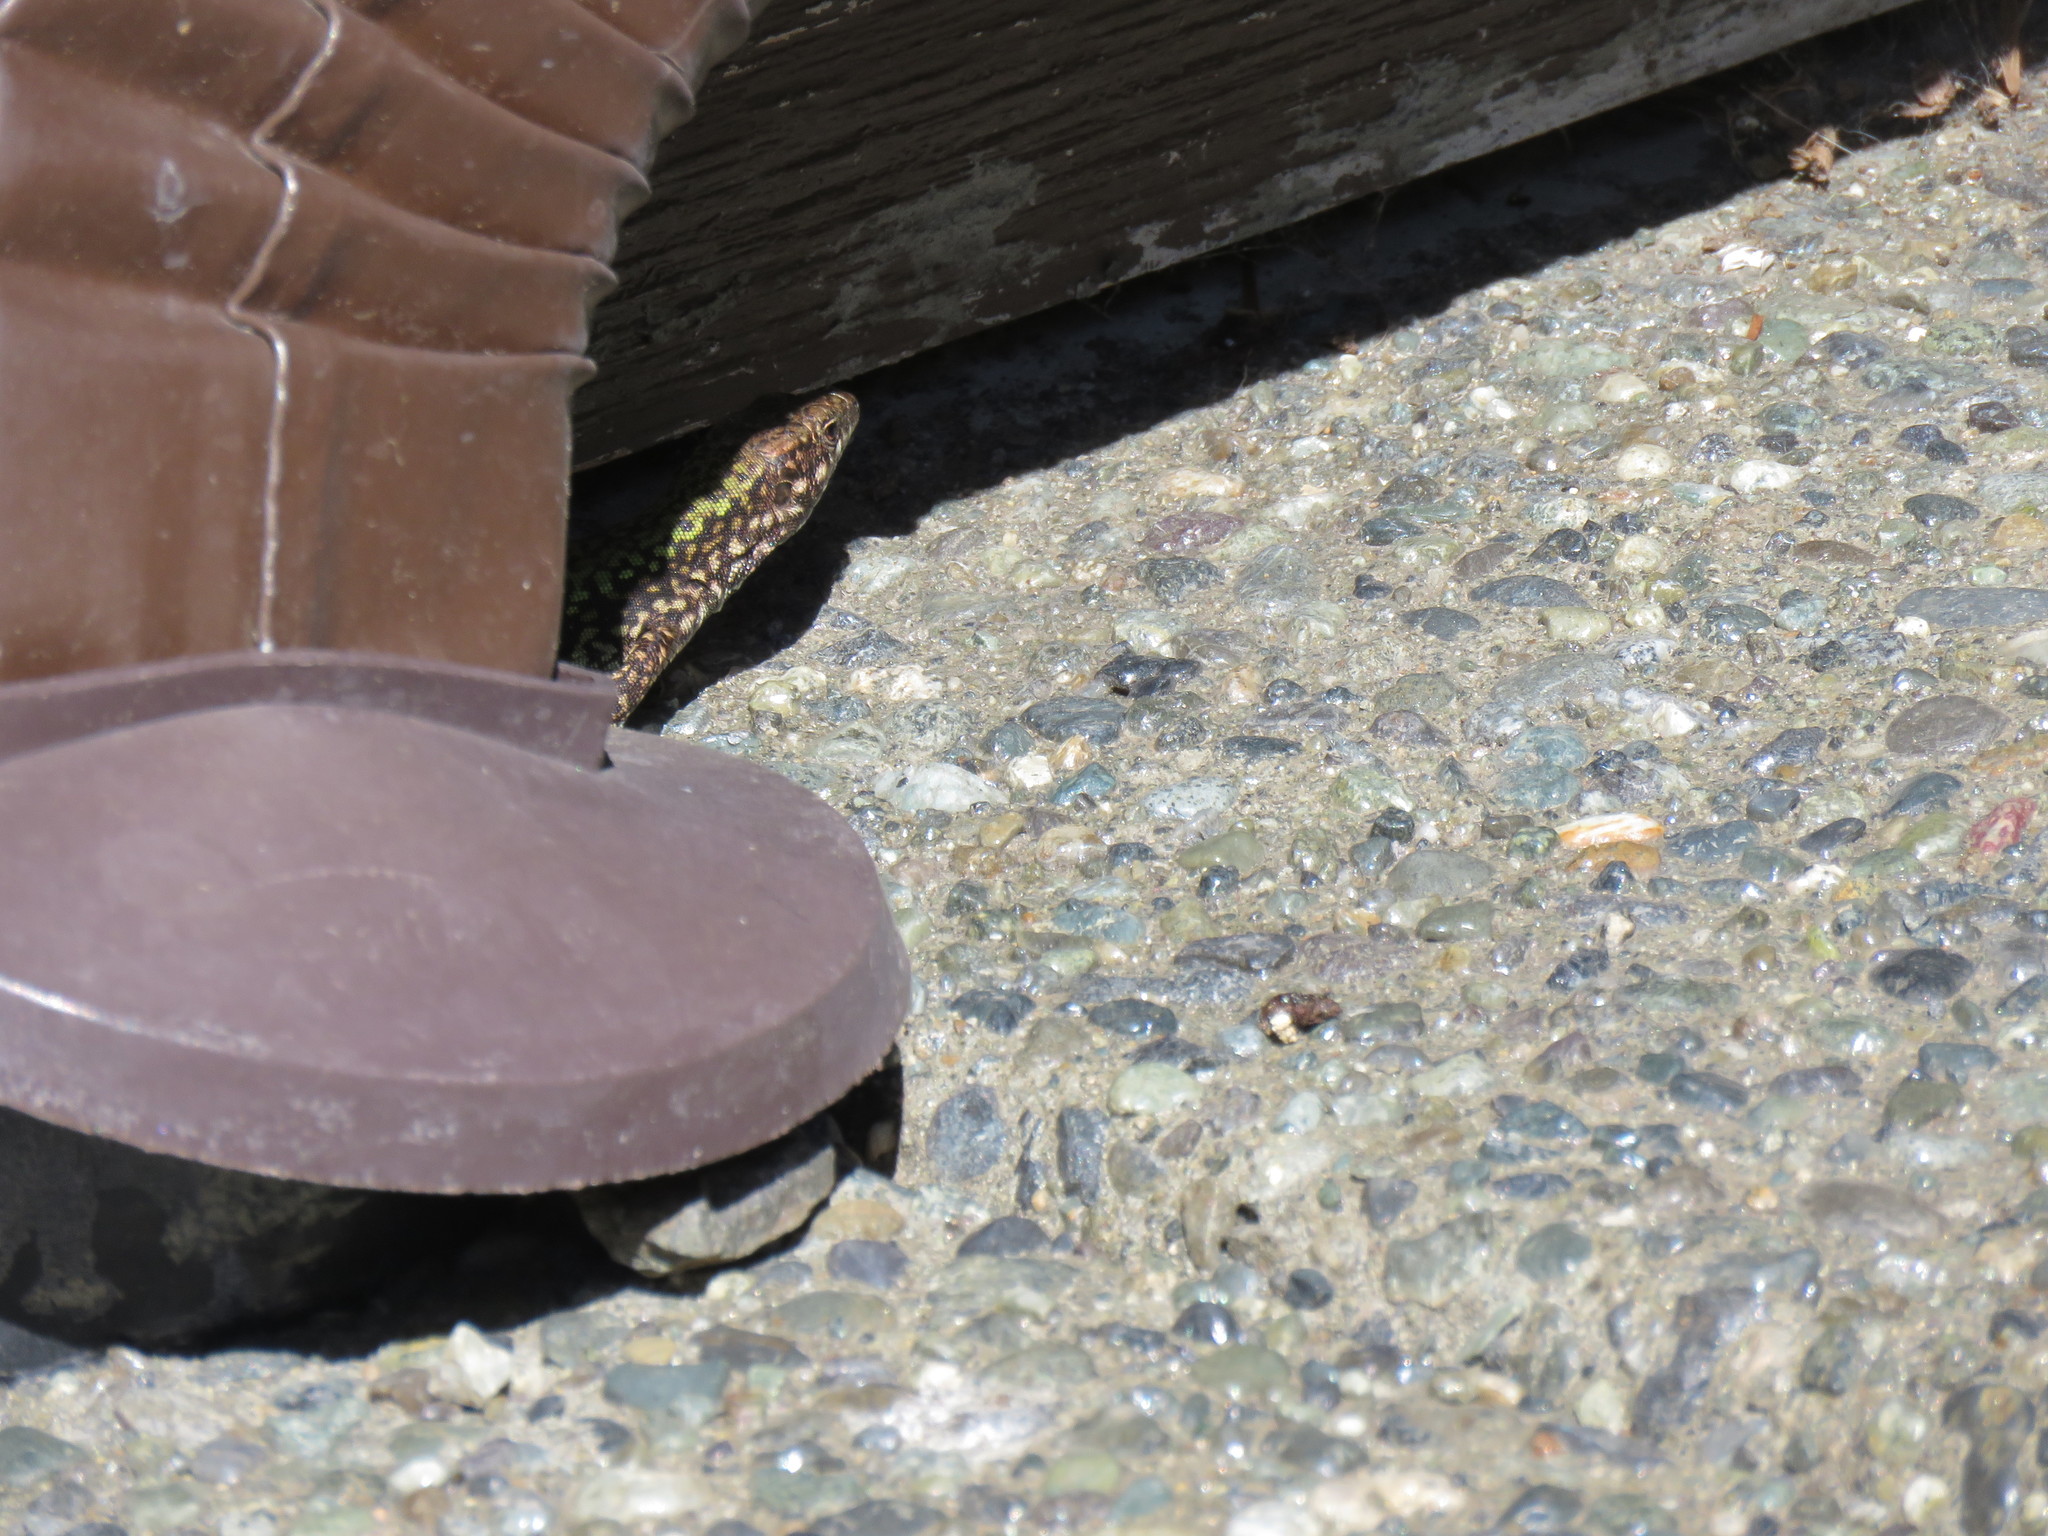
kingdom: Animalia
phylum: Chordata
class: Squamata
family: Lacertidae
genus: Podarcis
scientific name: Podarcis muralis
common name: Common wall lizard
